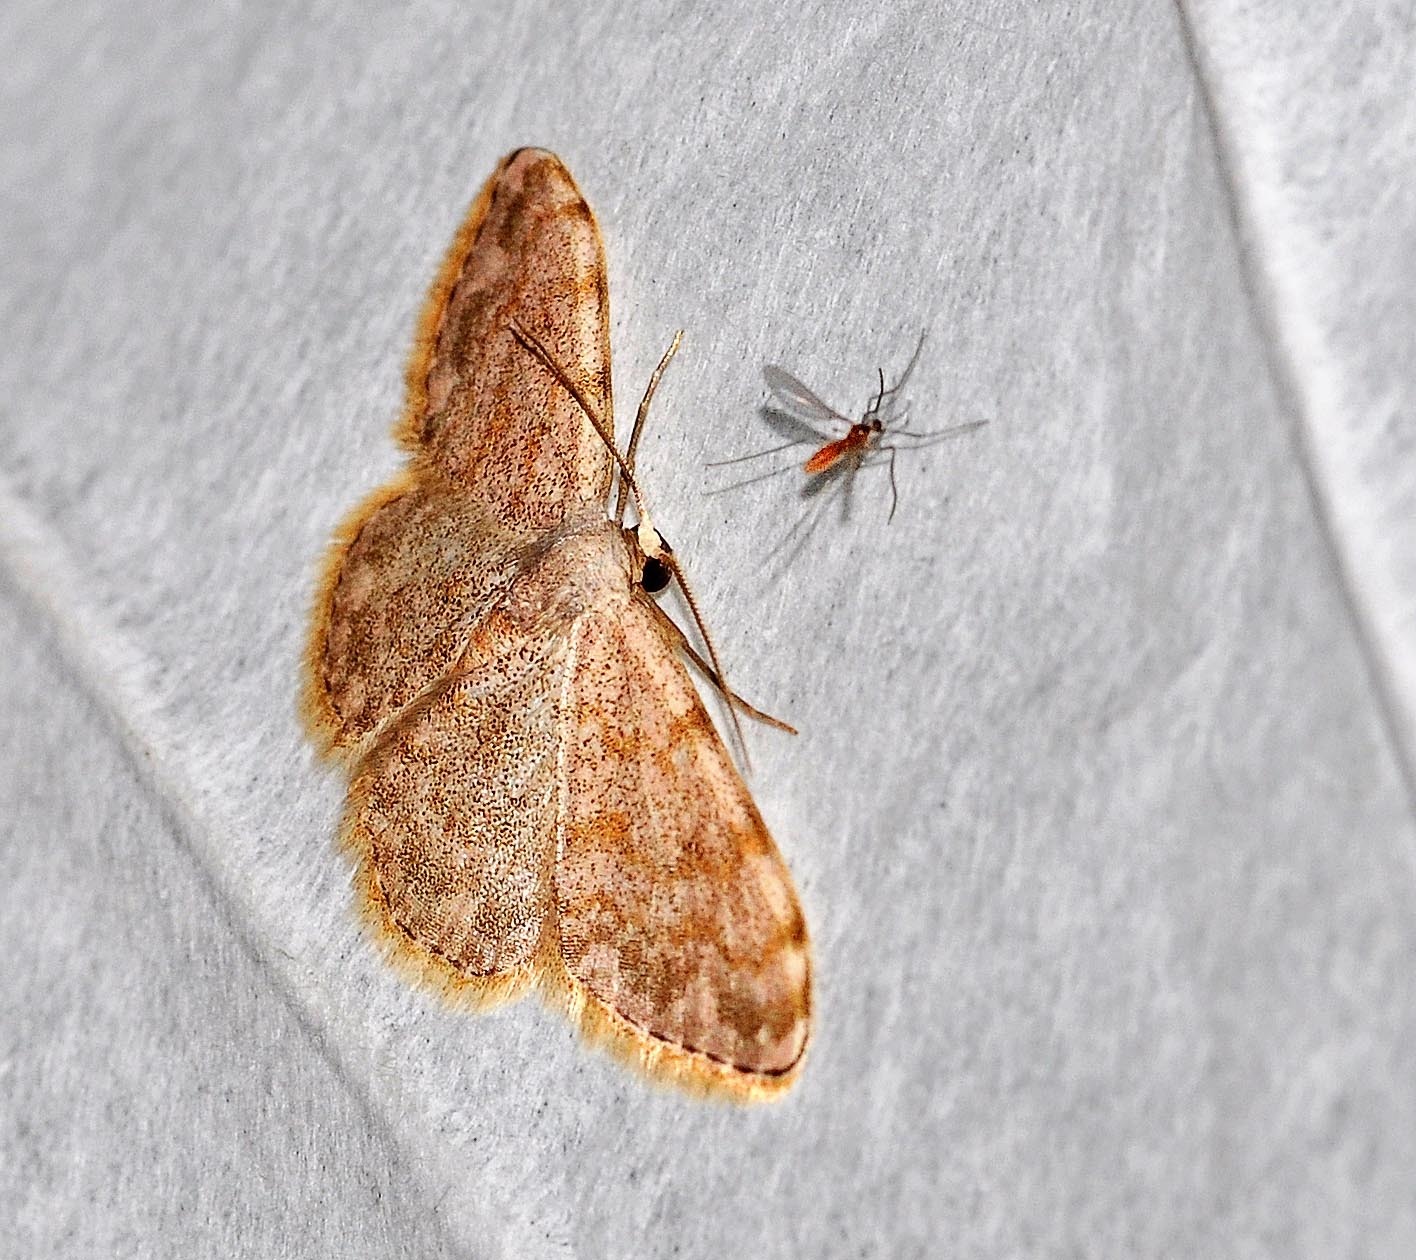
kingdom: Animalia
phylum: Arthropoda
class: Insecta
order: Lepidoptera
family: Geometridae
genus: Glossotrophia
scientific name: Glossotrophia asellaria
